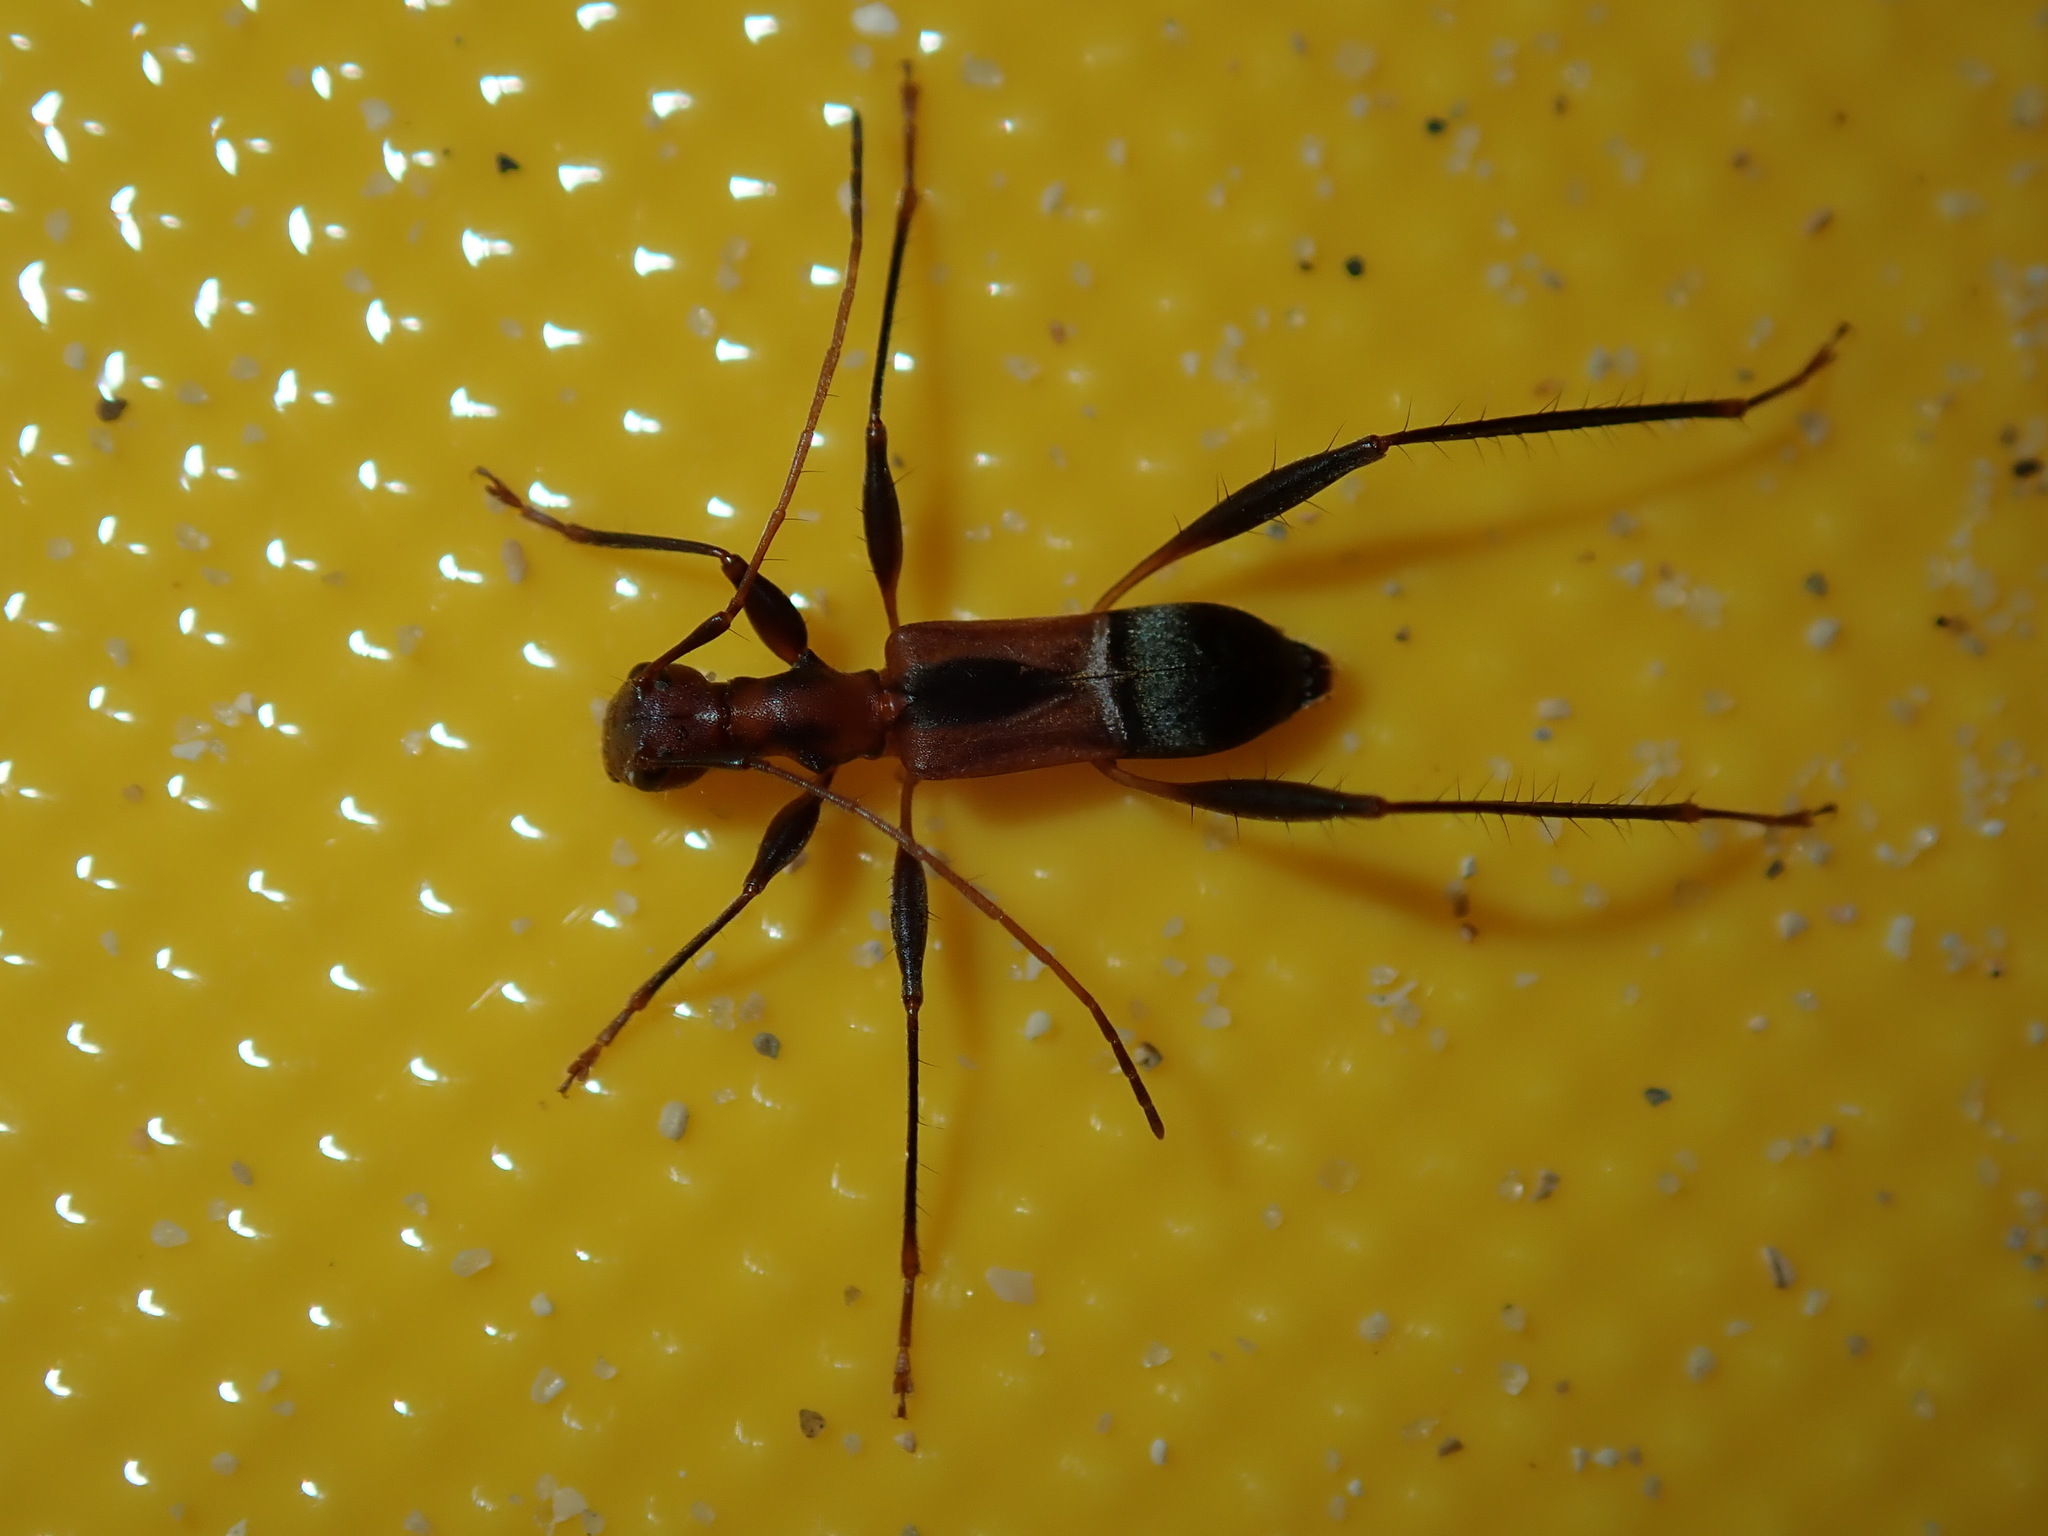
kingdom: Animalia
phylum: Arthropoda
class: Insecta
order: Coleoptera
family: Cerambycidae
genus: Zoedia
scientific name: Zoedia longipes
